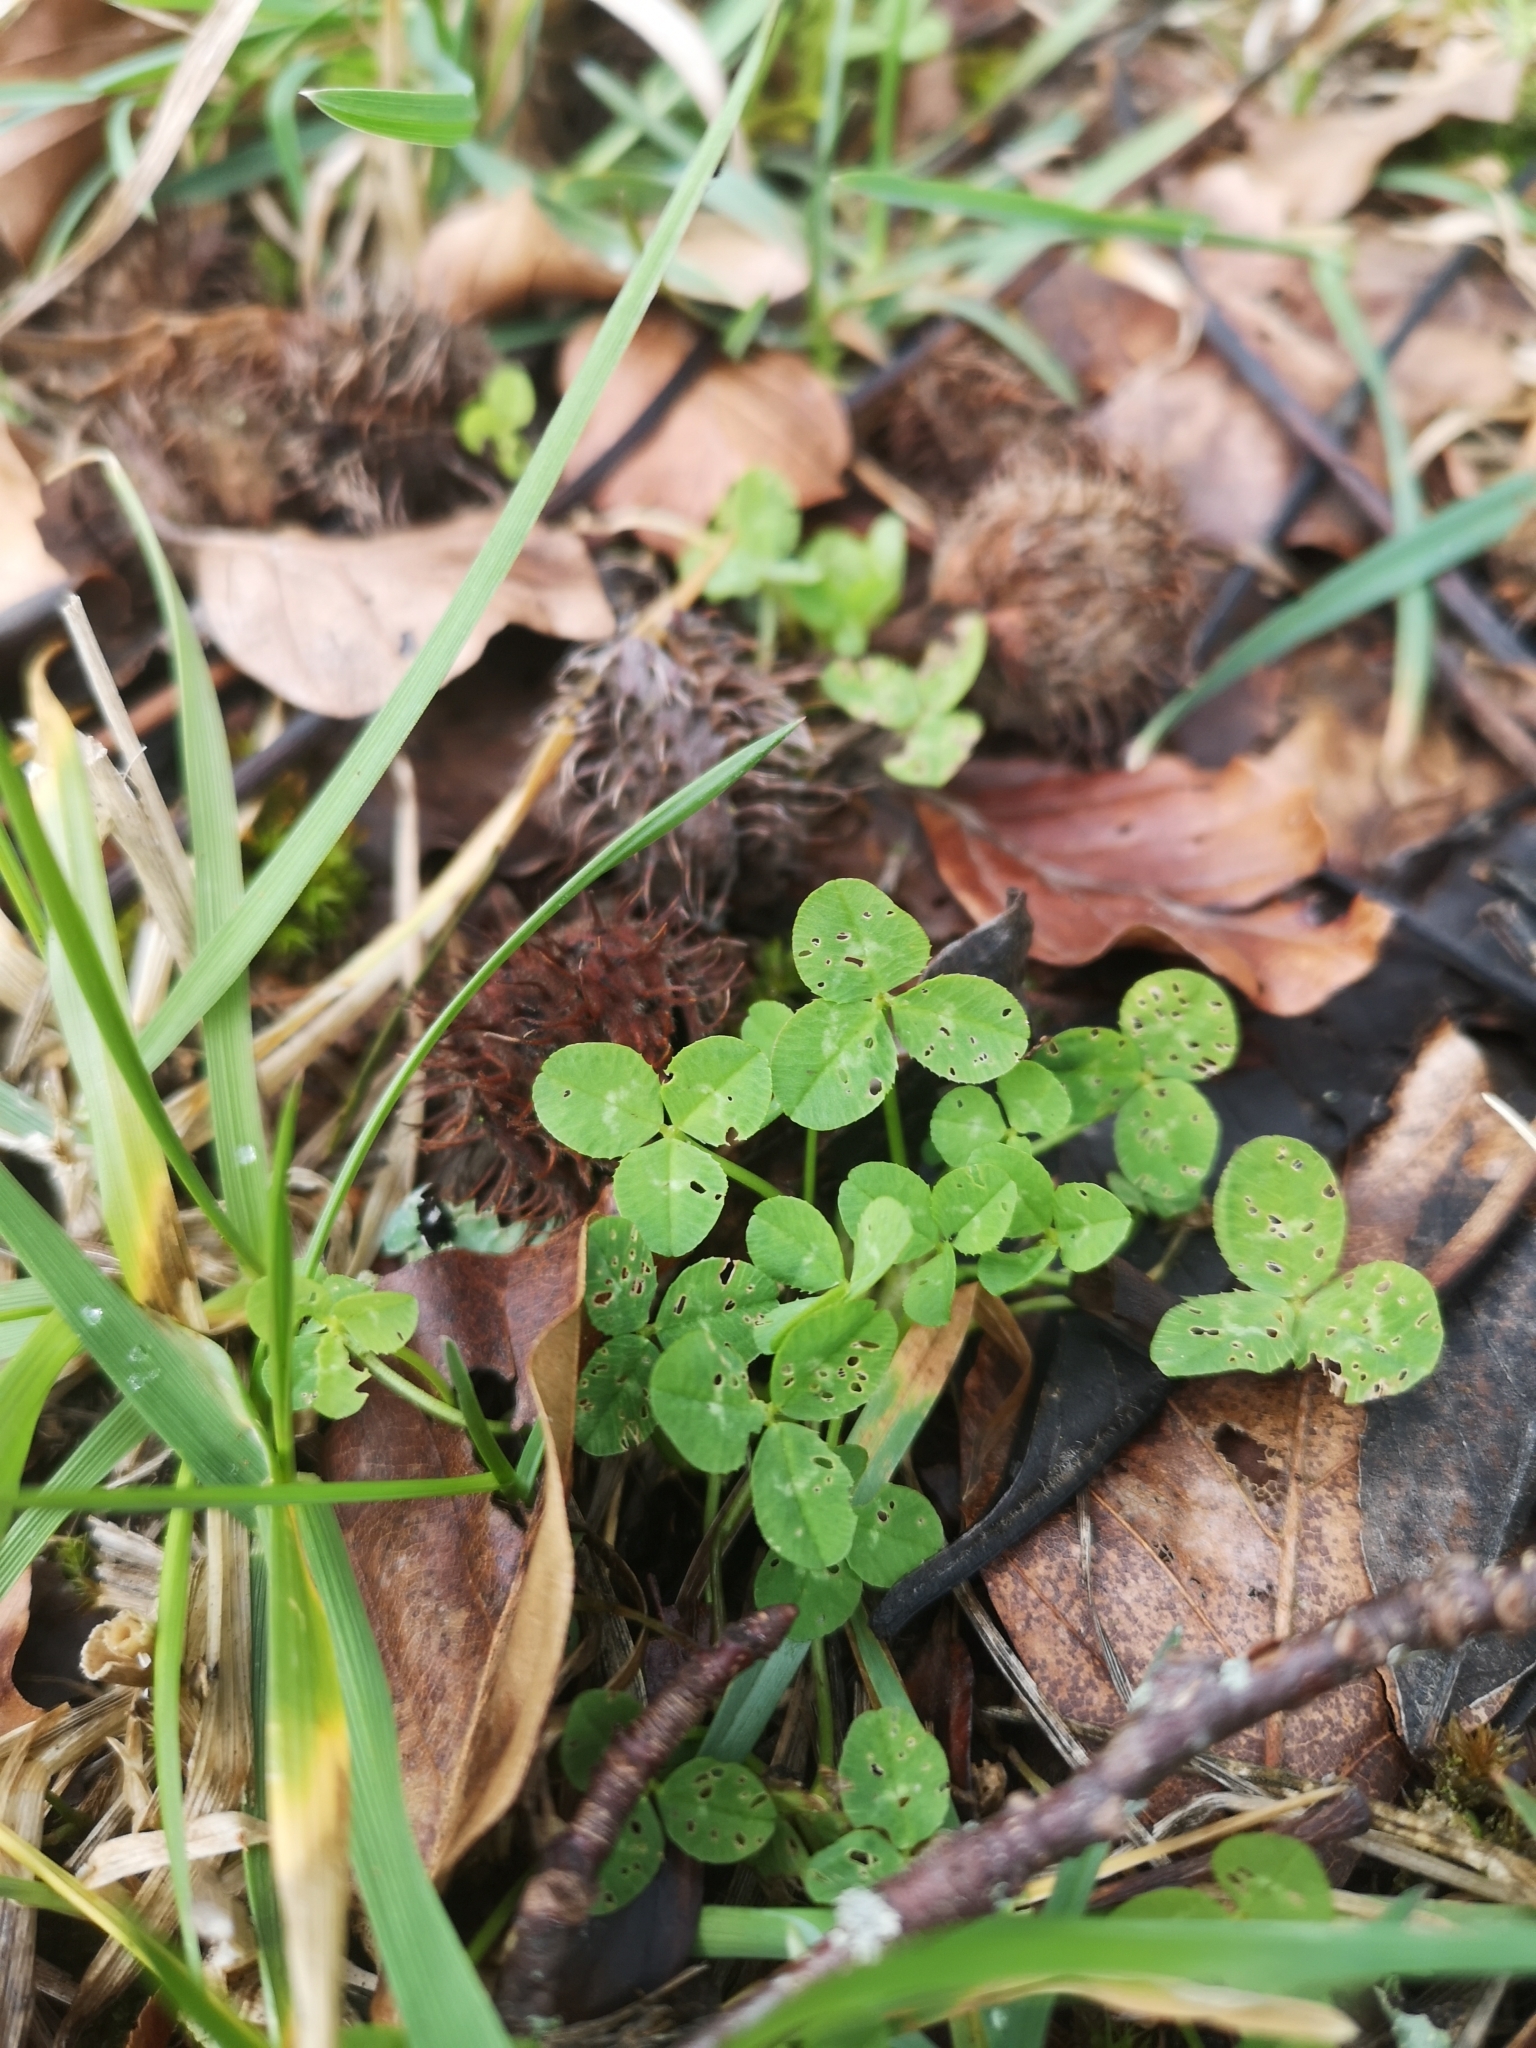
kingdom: Plantae
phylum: Tracheophyta
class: Magnoliopsida
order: Fabales
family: Fabaceae
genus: Trifolium
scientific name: Trifolium repens
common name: White clover
